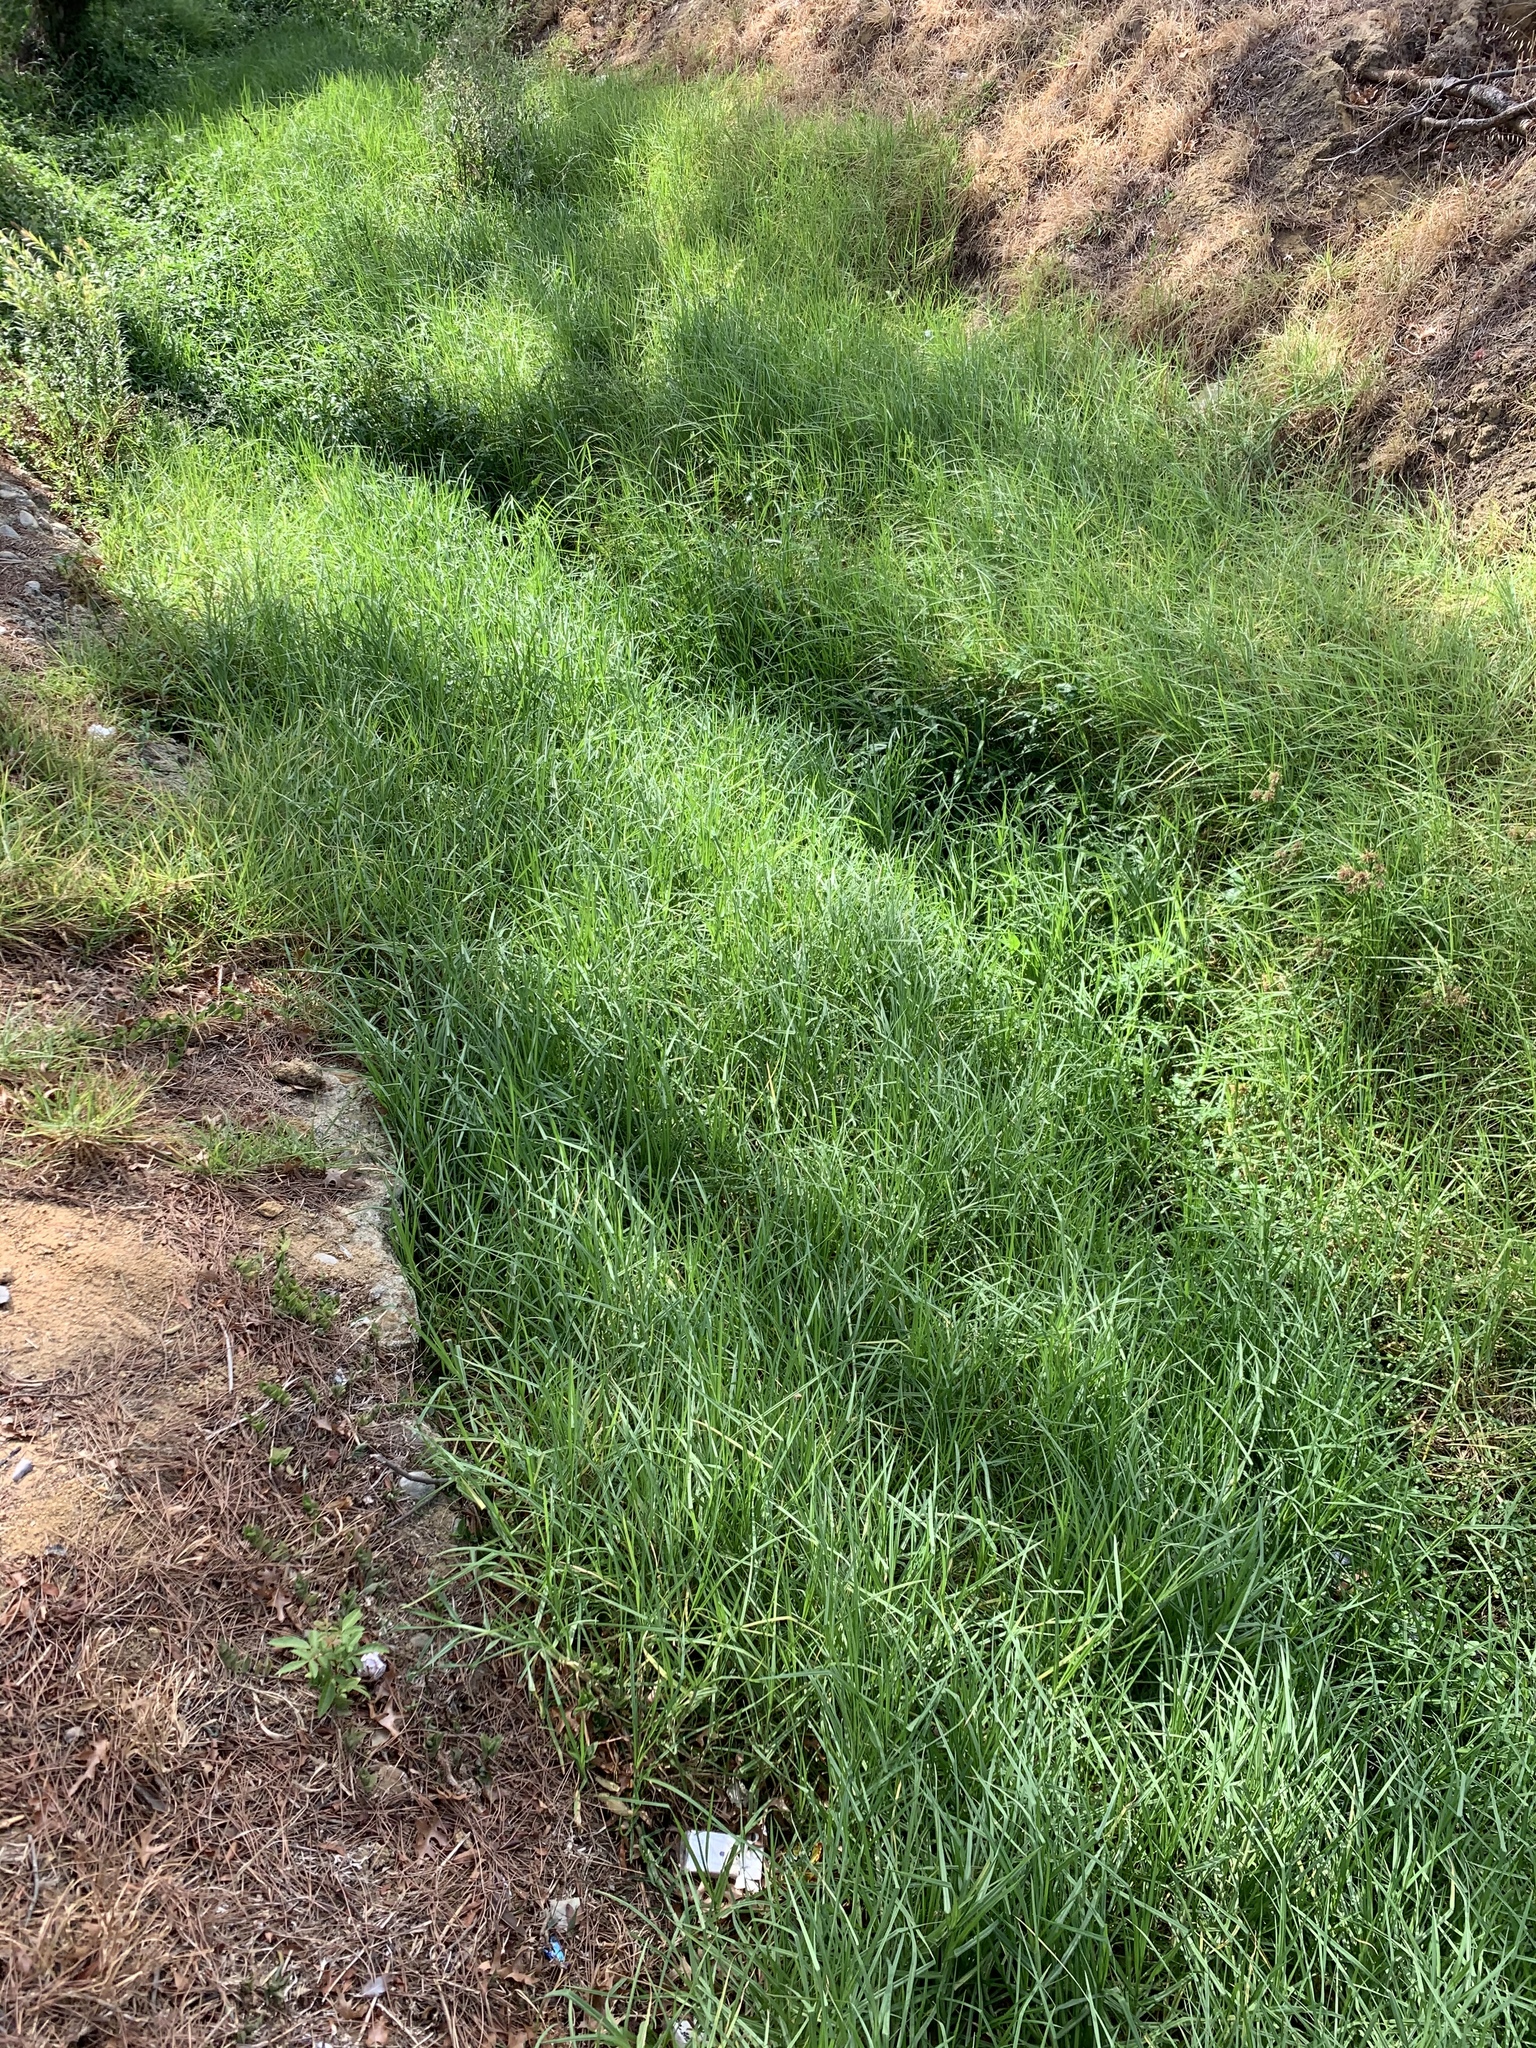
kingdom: Plantae
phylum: Tracheophyta
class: Liliopsida
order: Poales
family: Poaceae
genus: Cenchrus
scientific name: Cenchrus clandestinus
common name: Kikuyugrass
